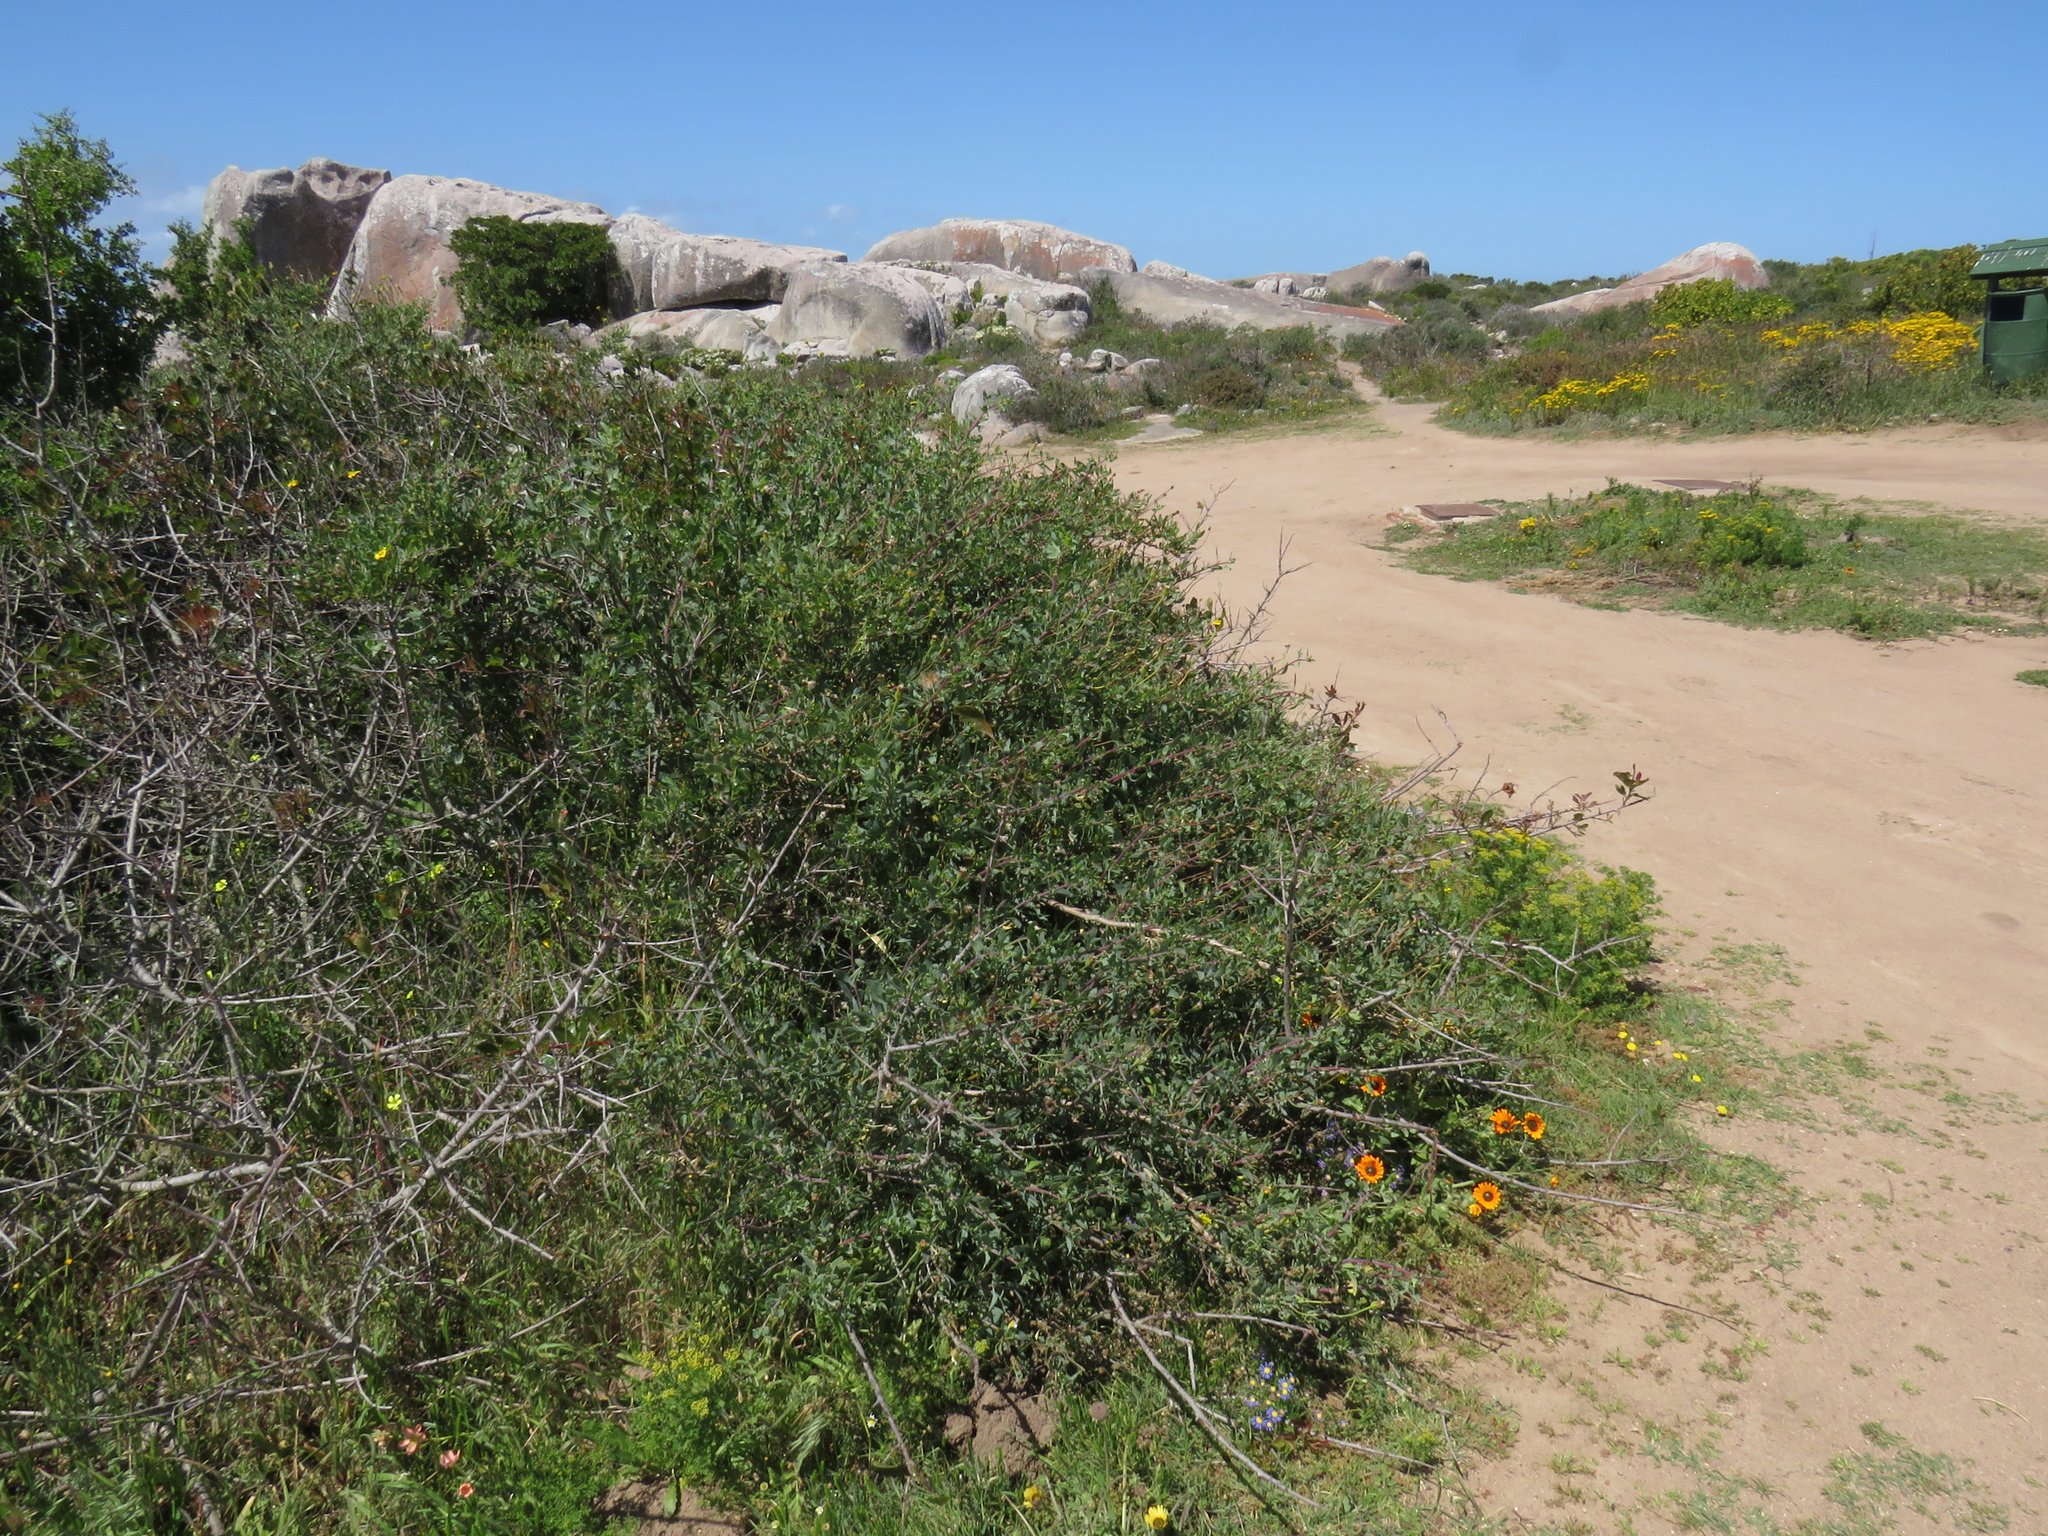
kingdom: Plantae
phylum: Tracheophyta
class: Magnoliopsida
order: Asterales
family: Asteraceae
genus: Othonna
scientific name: Othonna coronopifolia
